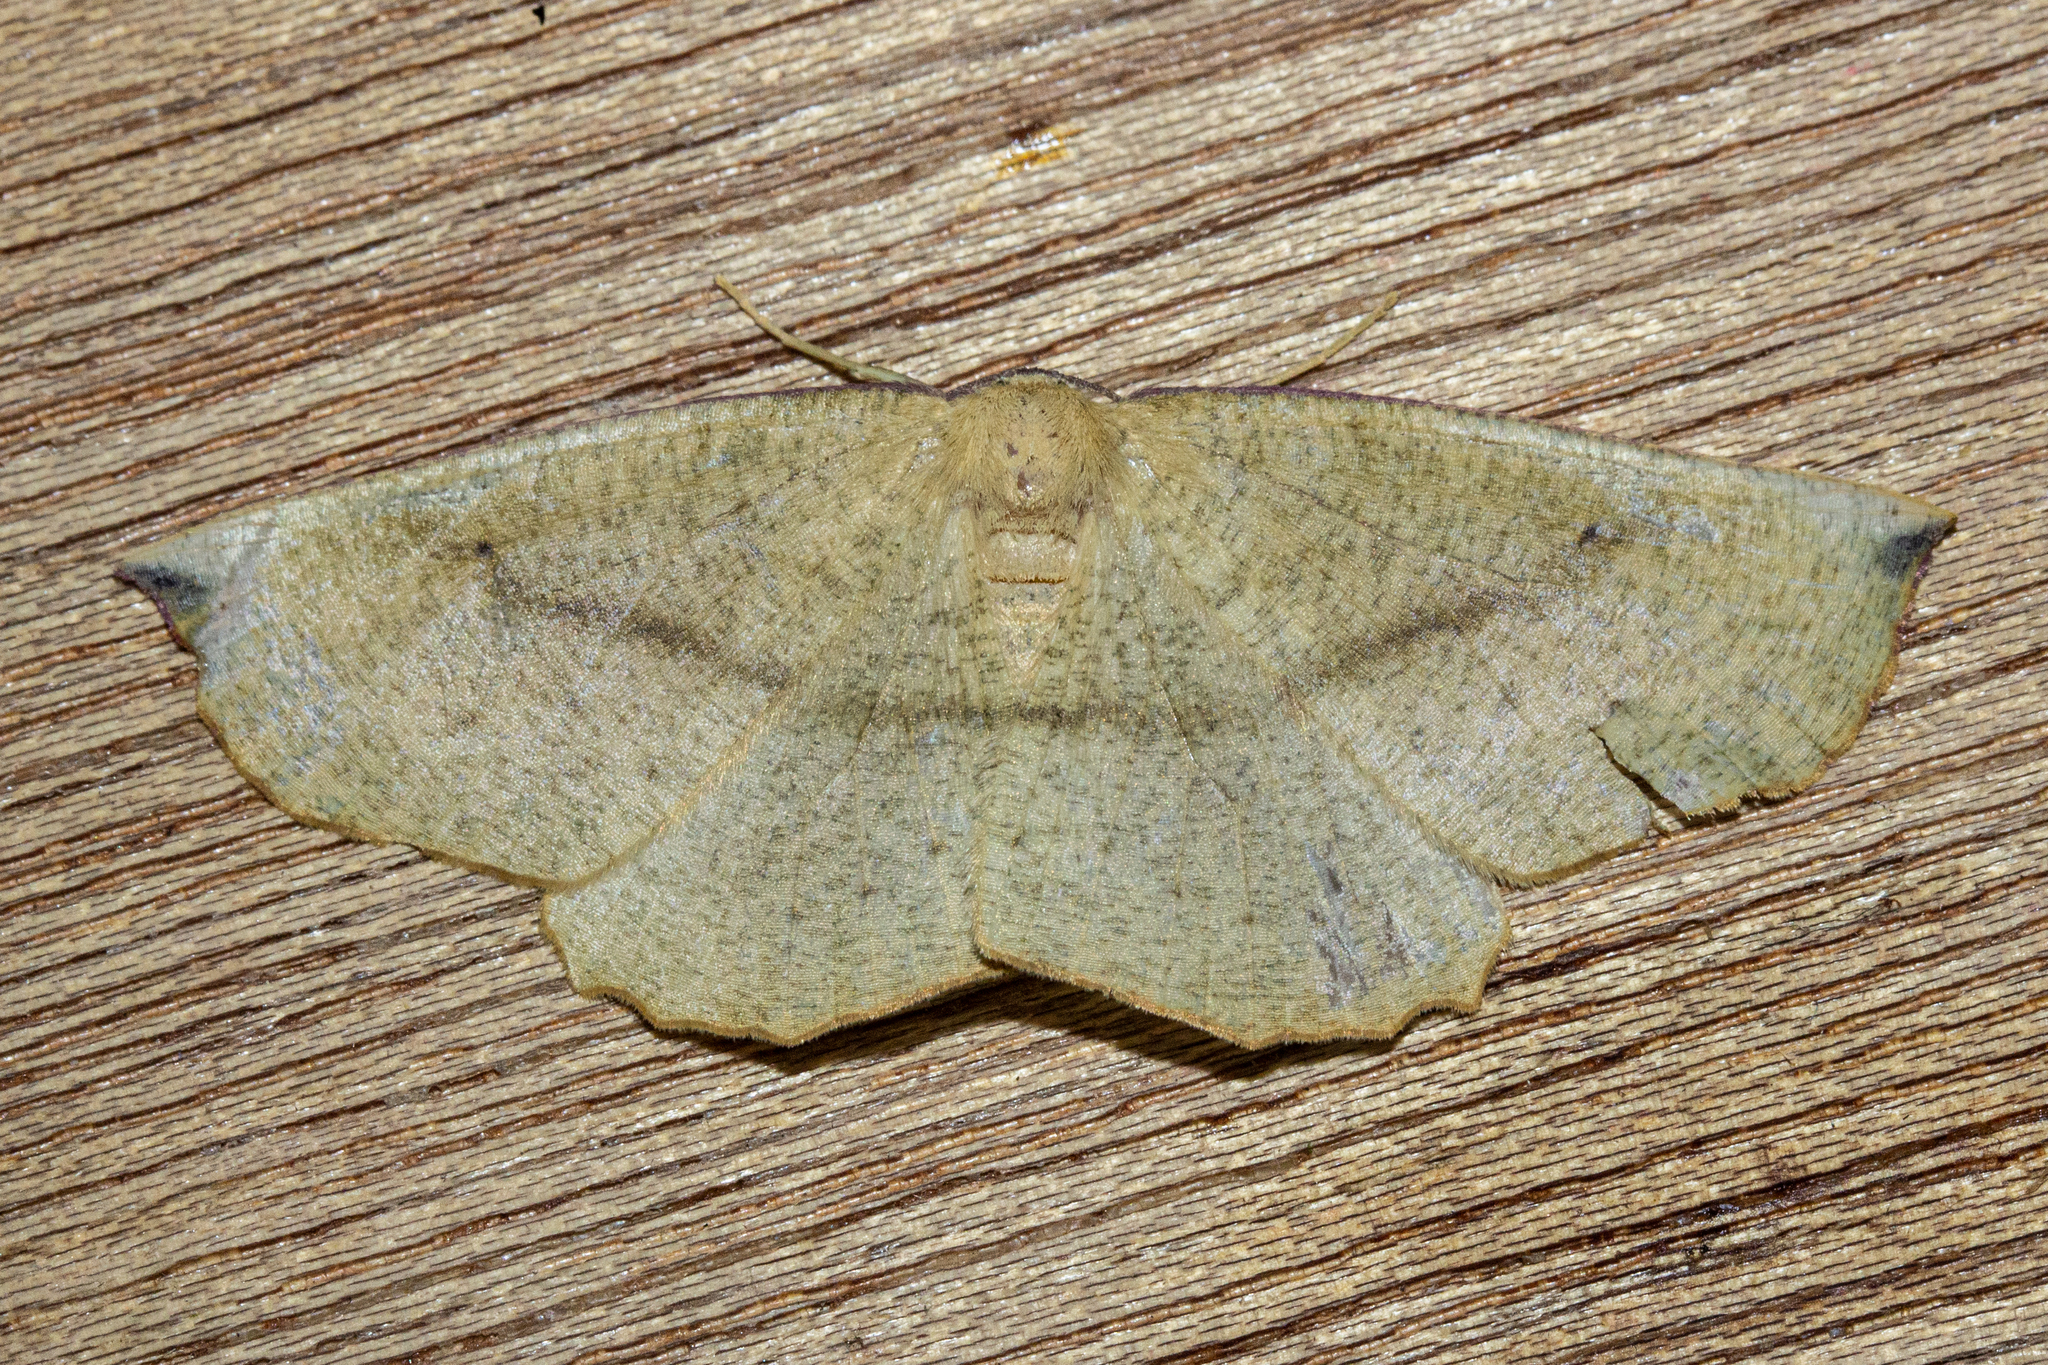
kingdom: Animalia
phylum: Arthropoda
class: Insecta
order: Lepidoptera
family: Geometridae
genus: Xyridacma
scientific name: Xyridacma ustaria
